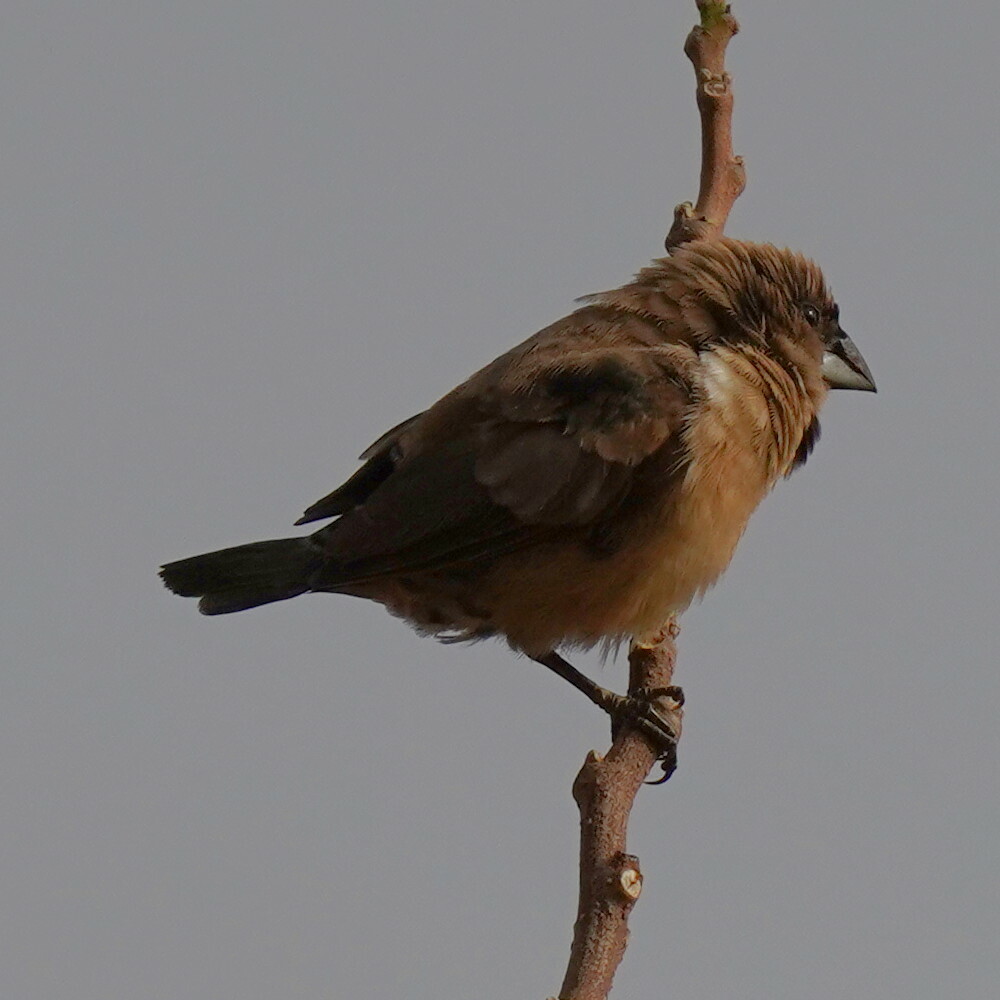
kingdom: Animalia
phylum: Chordata
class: Aves
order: Passeriformes
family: Estrildidae
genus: Lonchura
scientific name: Lonchura cucullata
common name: Bronze mannikin
